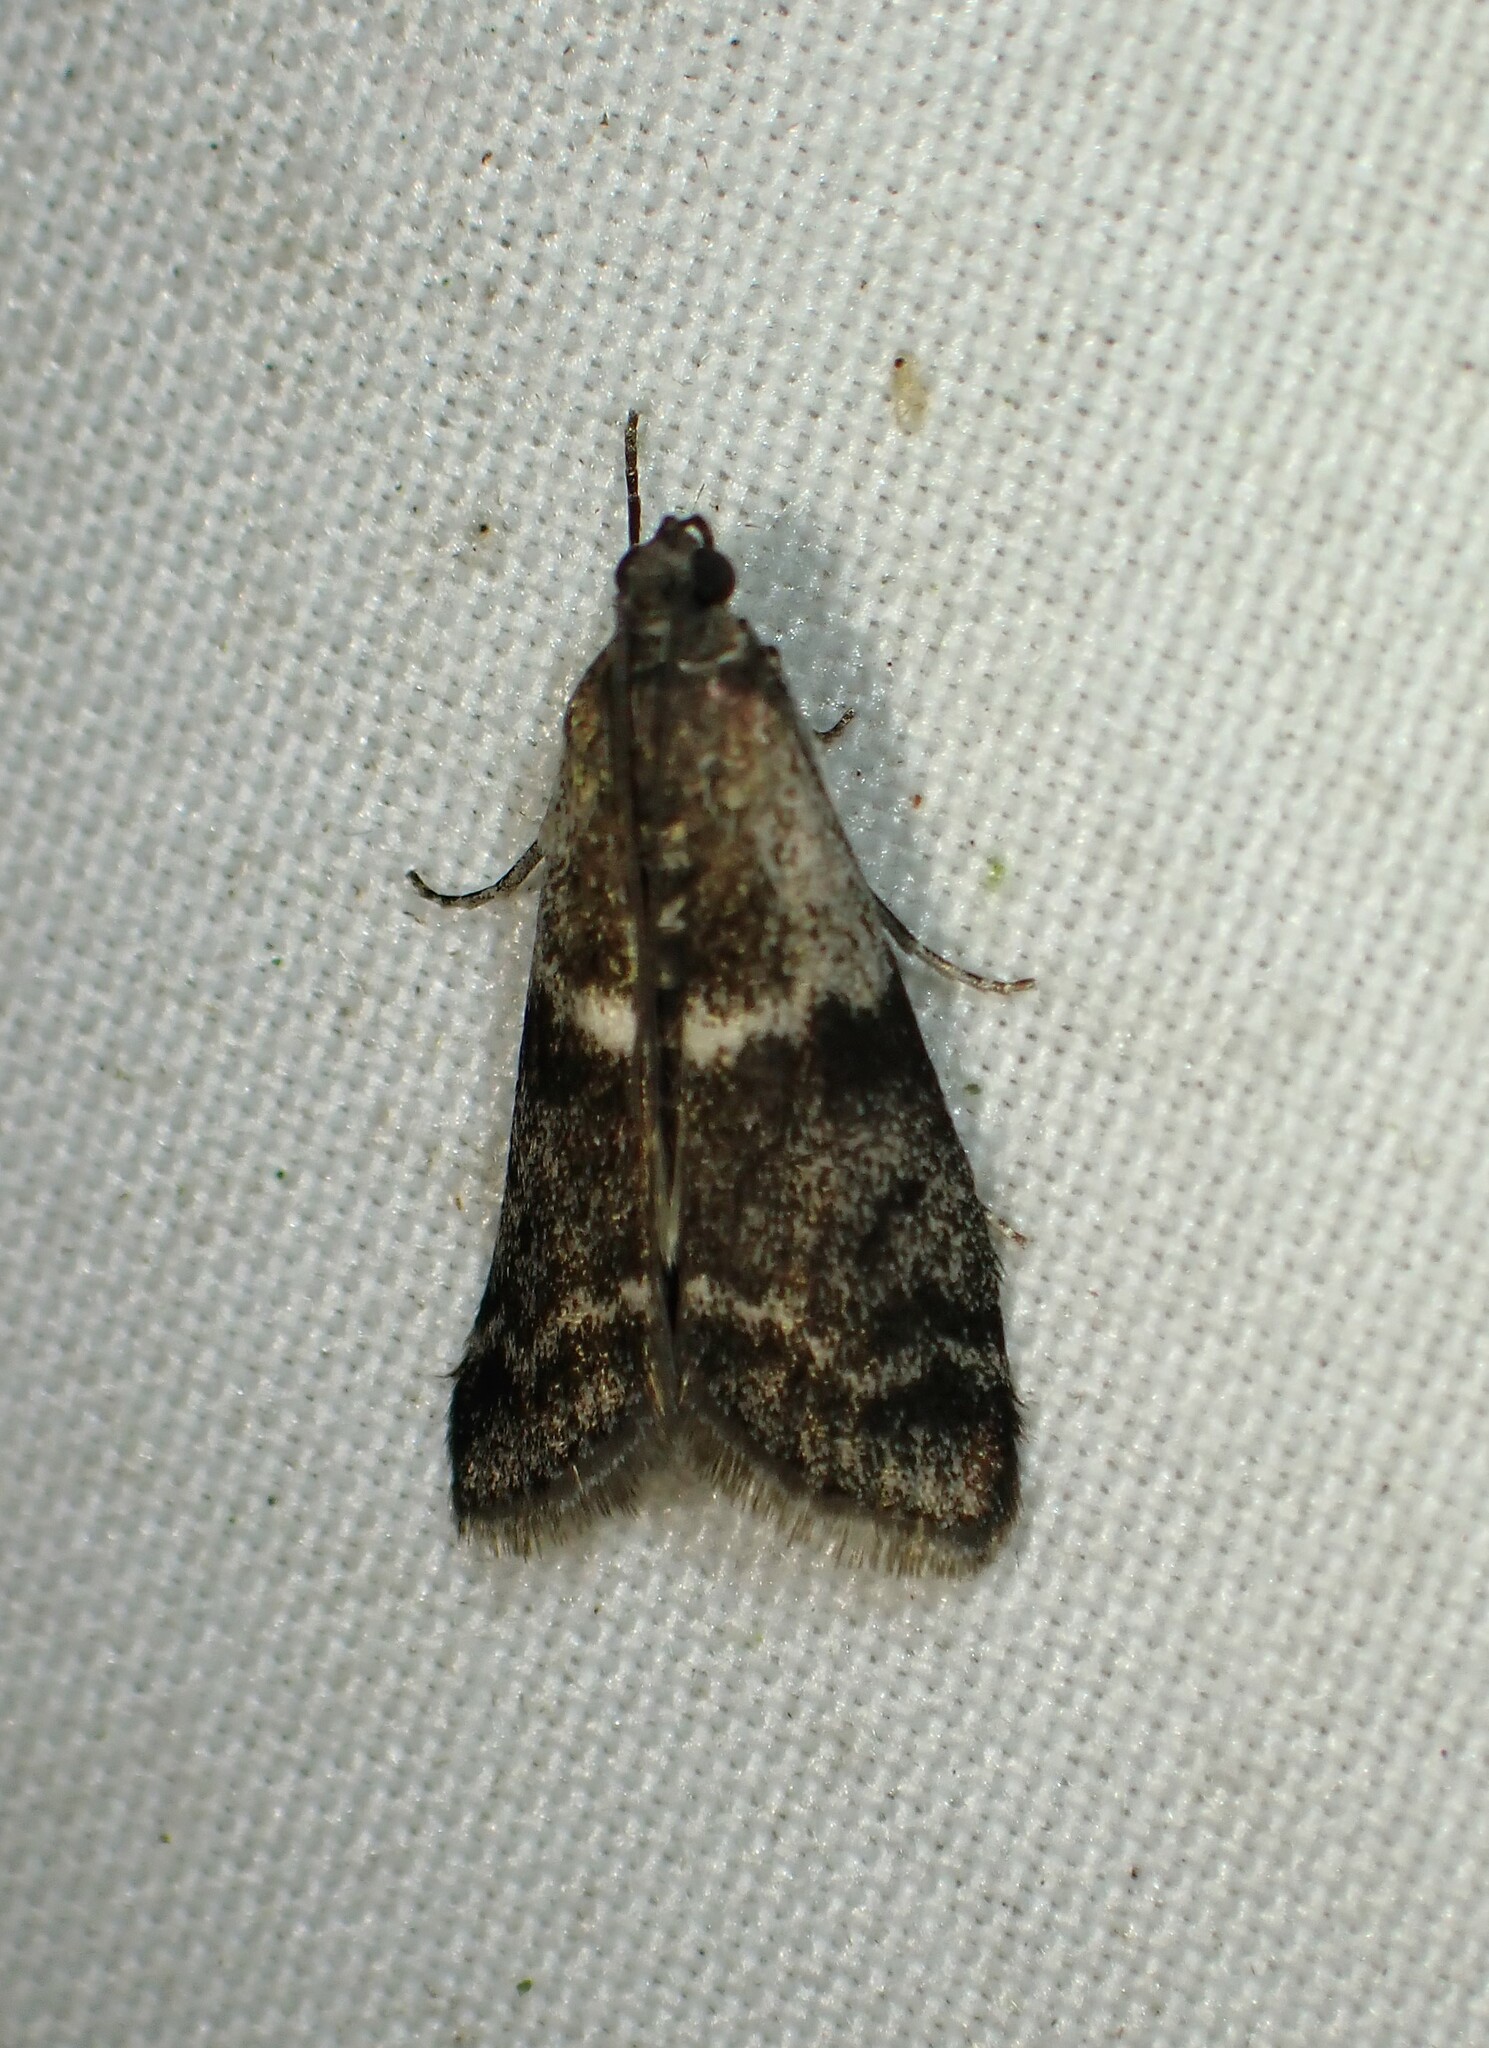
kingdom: Animalia
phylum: Arthropoda
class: Insecta
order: Lepidoptera
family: Pyralidae
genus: Apomyelois
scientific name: Apomyelois bistriatella
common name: Heath knot-horn
